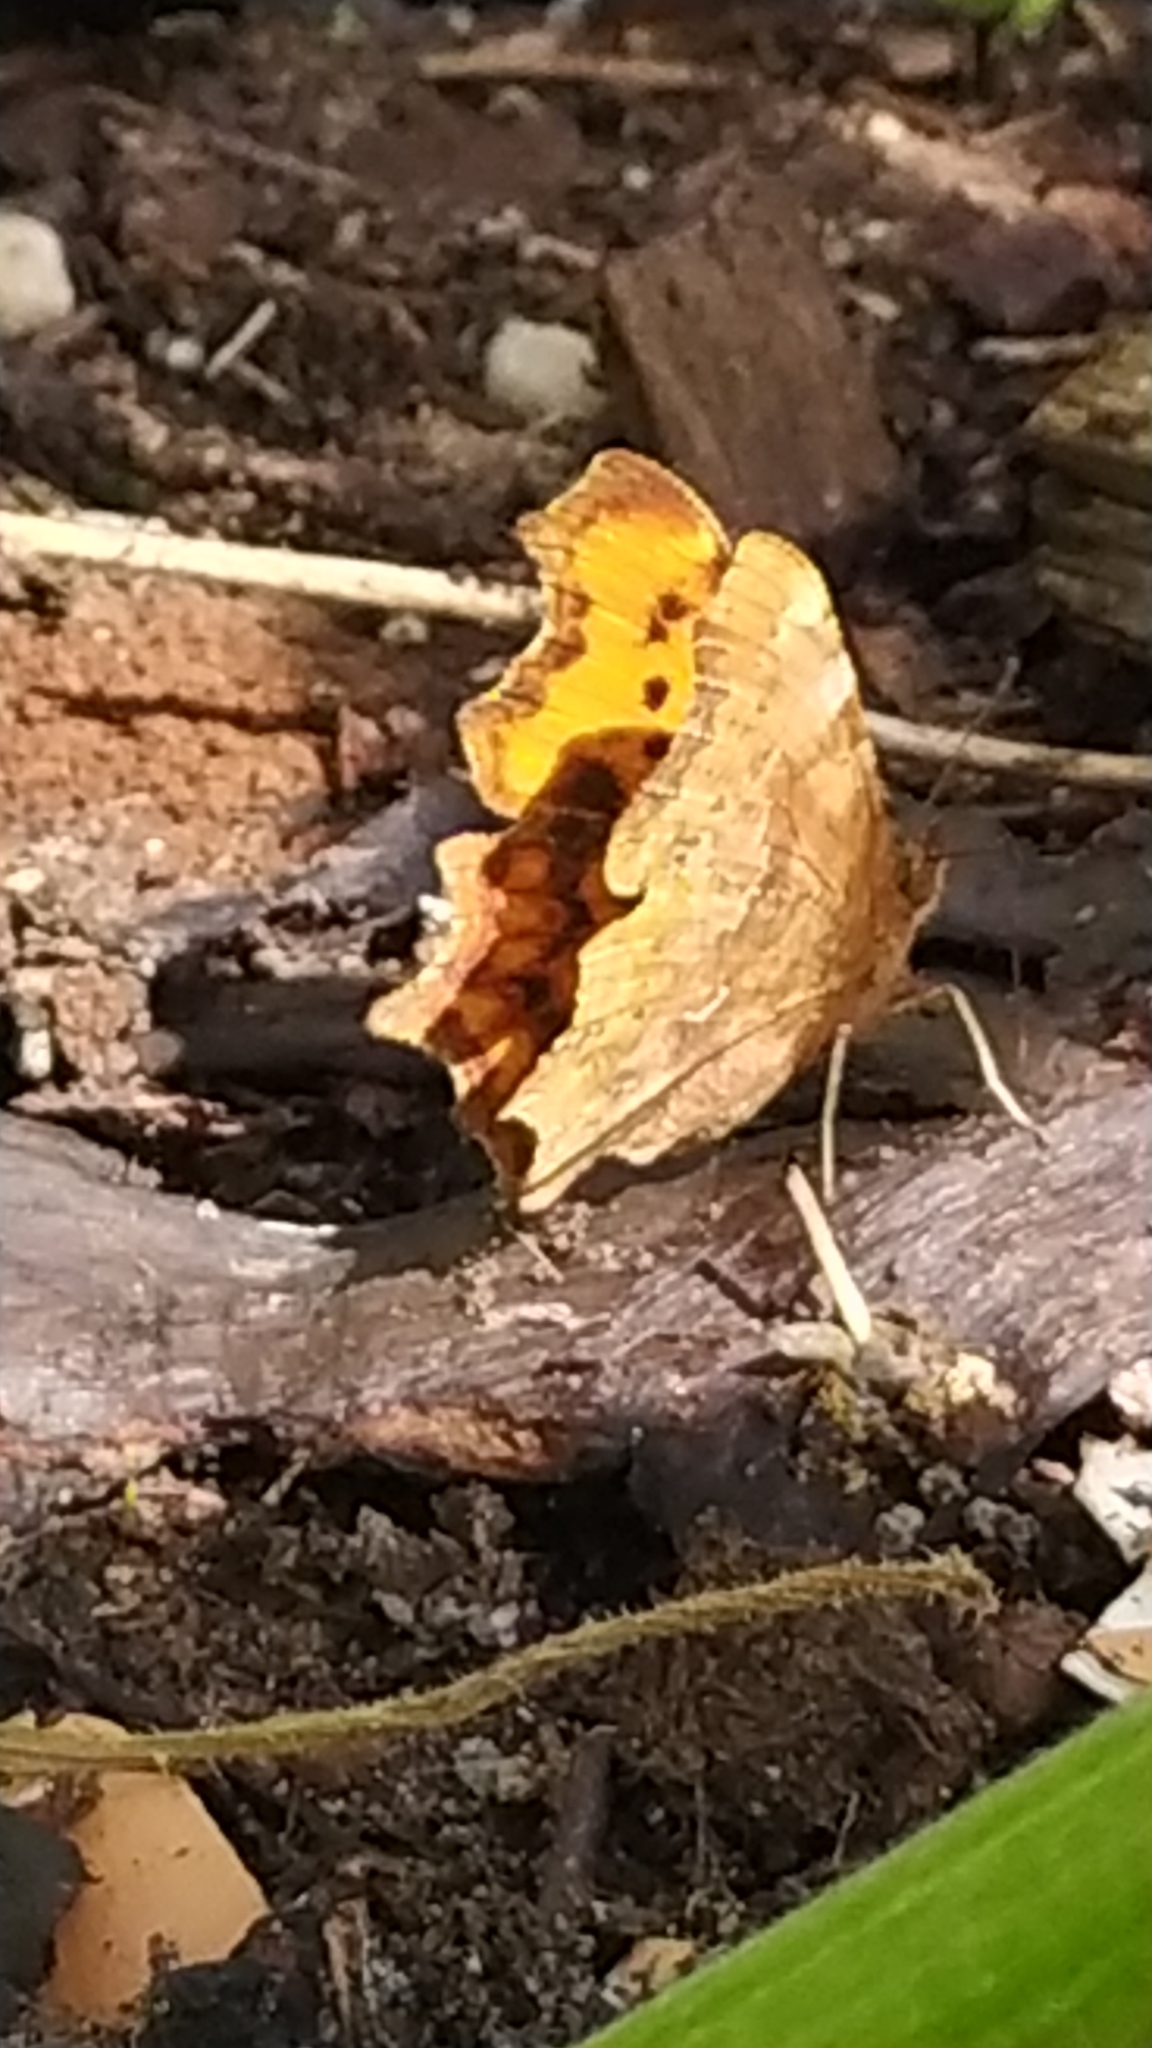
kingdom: Animalia
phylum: Arthropoda
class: Insecta
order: Lepidoptera
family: Nymphalidae
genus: Polygonia
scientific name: Polygonia c-album
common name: Comma
